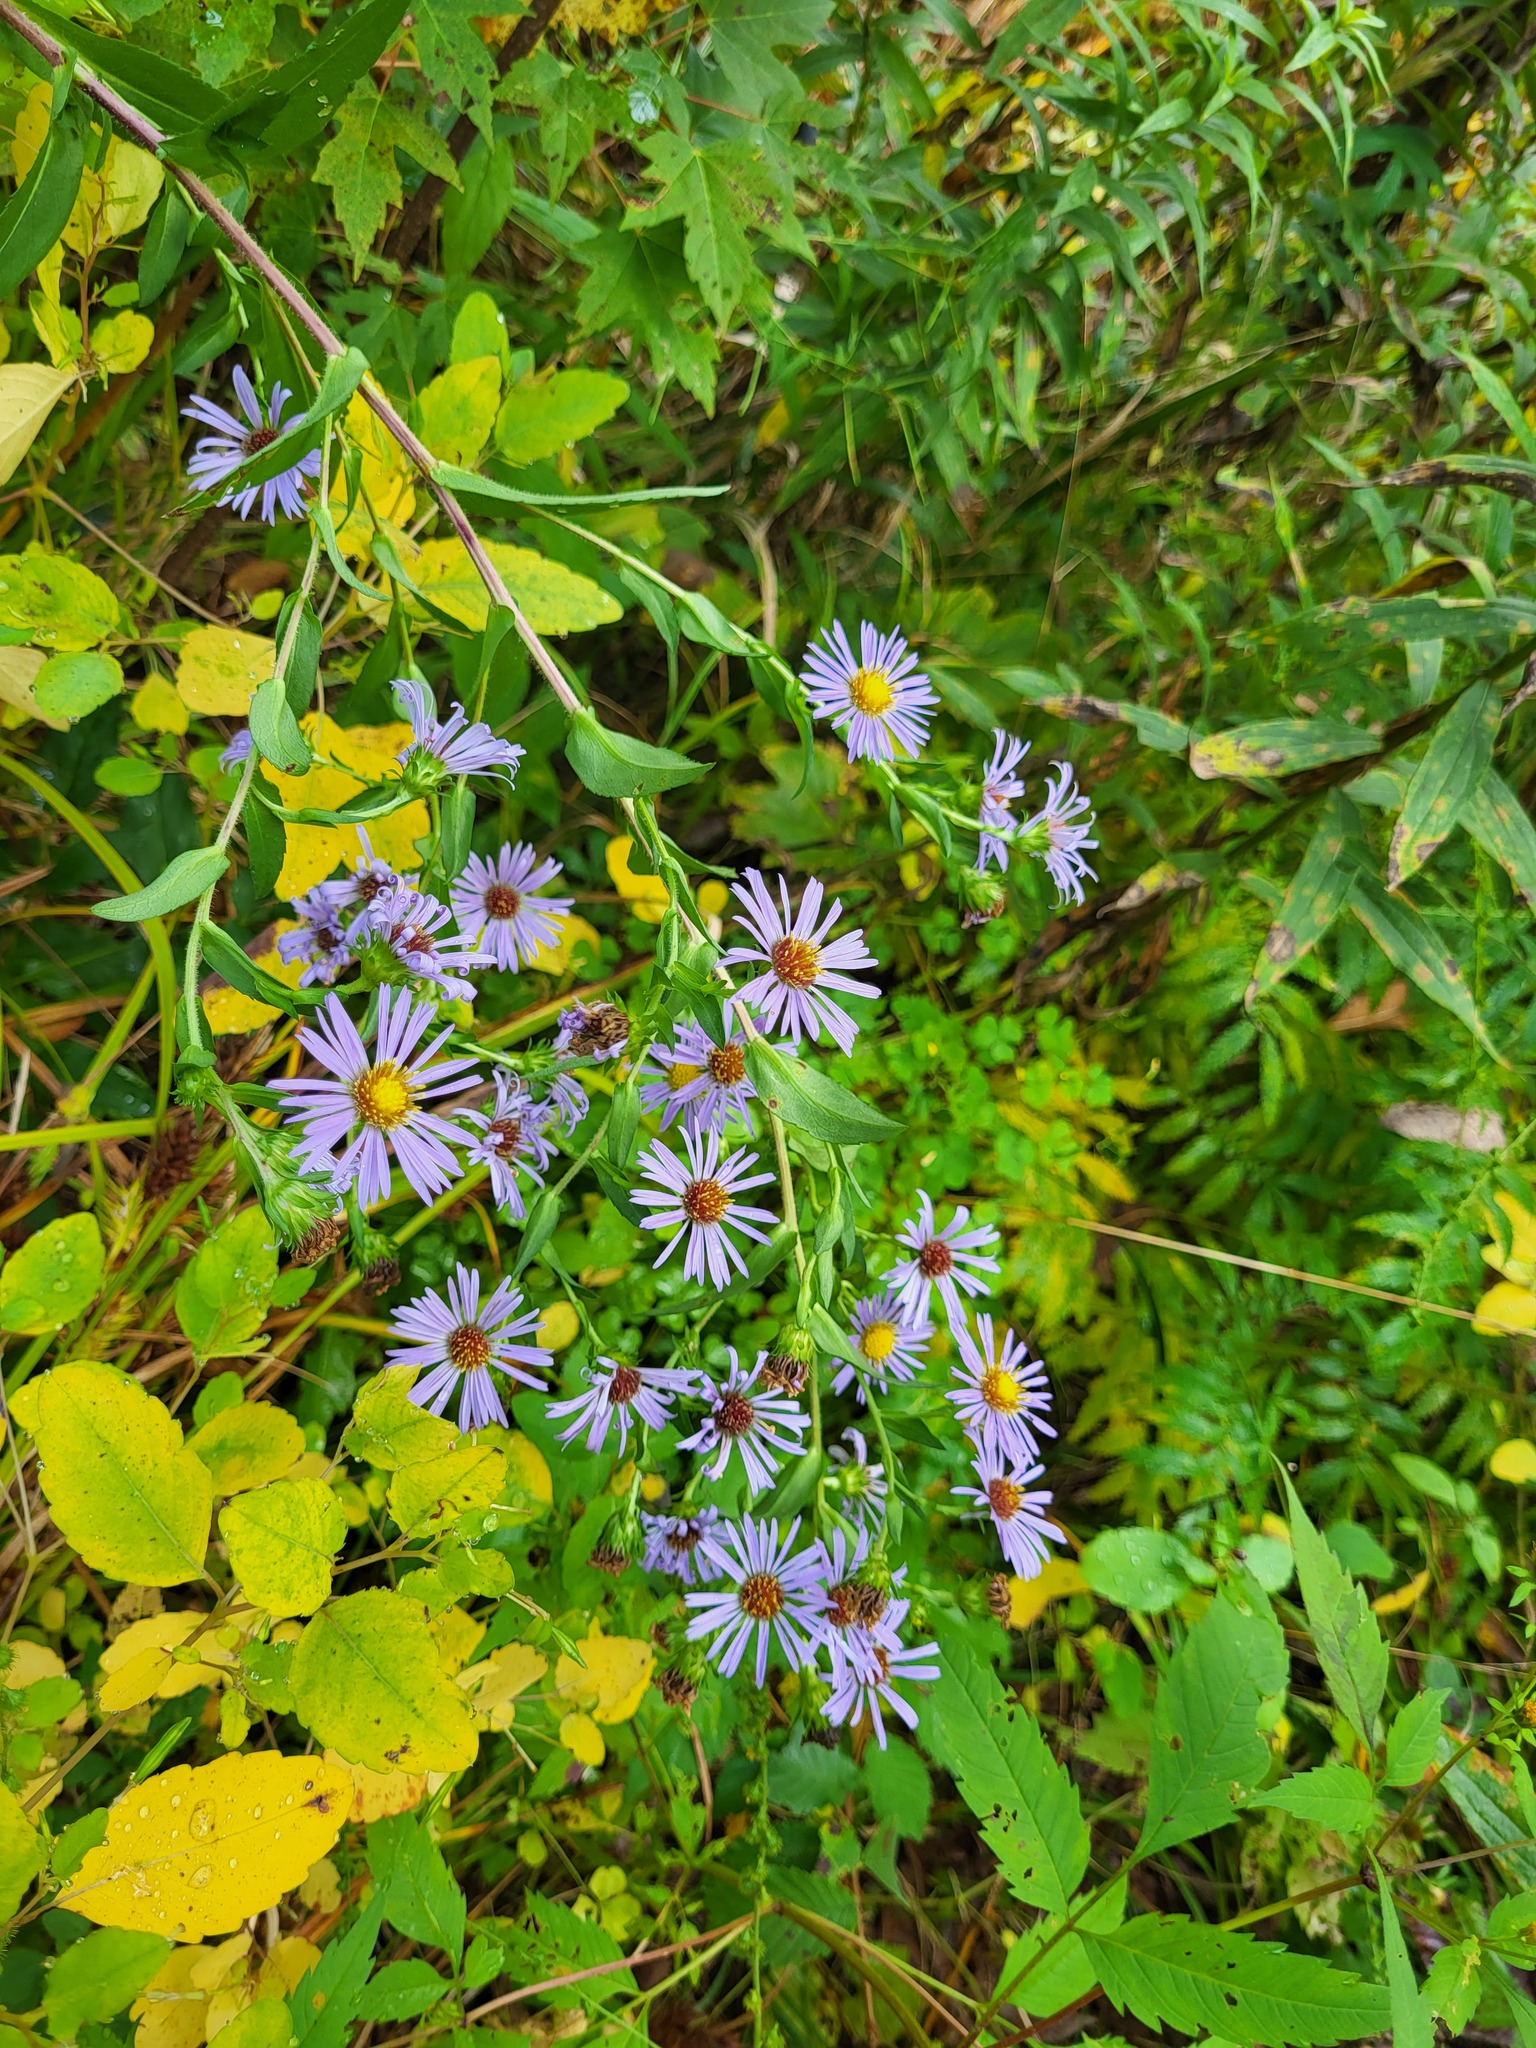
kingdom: Plantae
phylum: Tracheophyta
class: Magnoliopsida
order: Asterales
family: Asteraceae
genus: Symphyotrichum
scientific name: Symphyotrichum puniceum
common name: Bog aster
